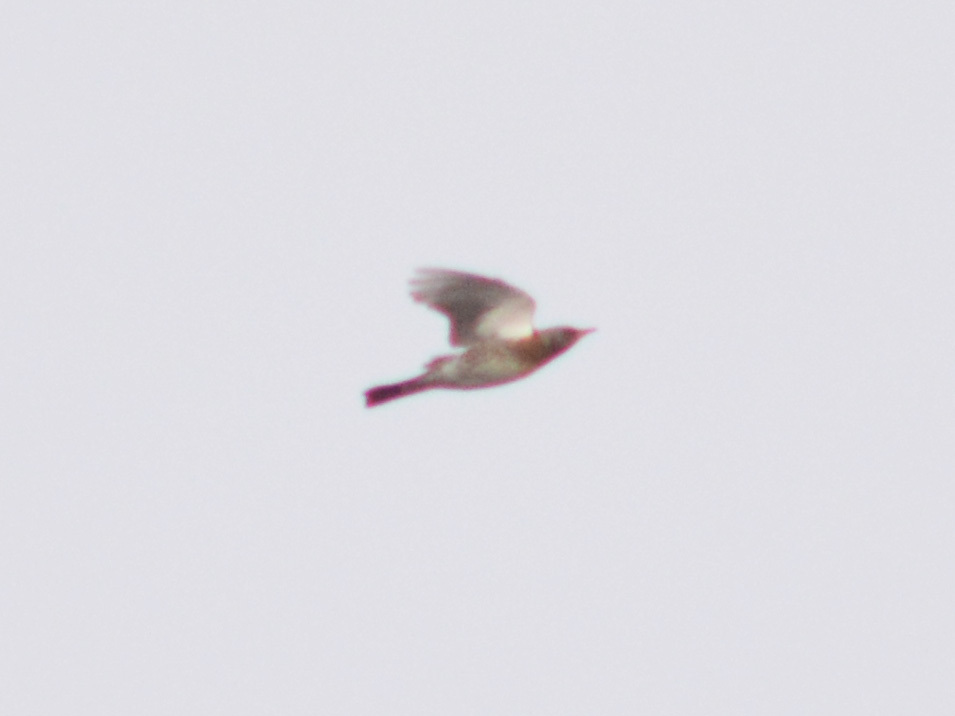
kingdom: Animalia
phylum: Chordata
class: Aves
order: Passeriformes
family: Turdidae
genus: Turdus
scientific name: Turdus pilaris
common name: Fieldfare
